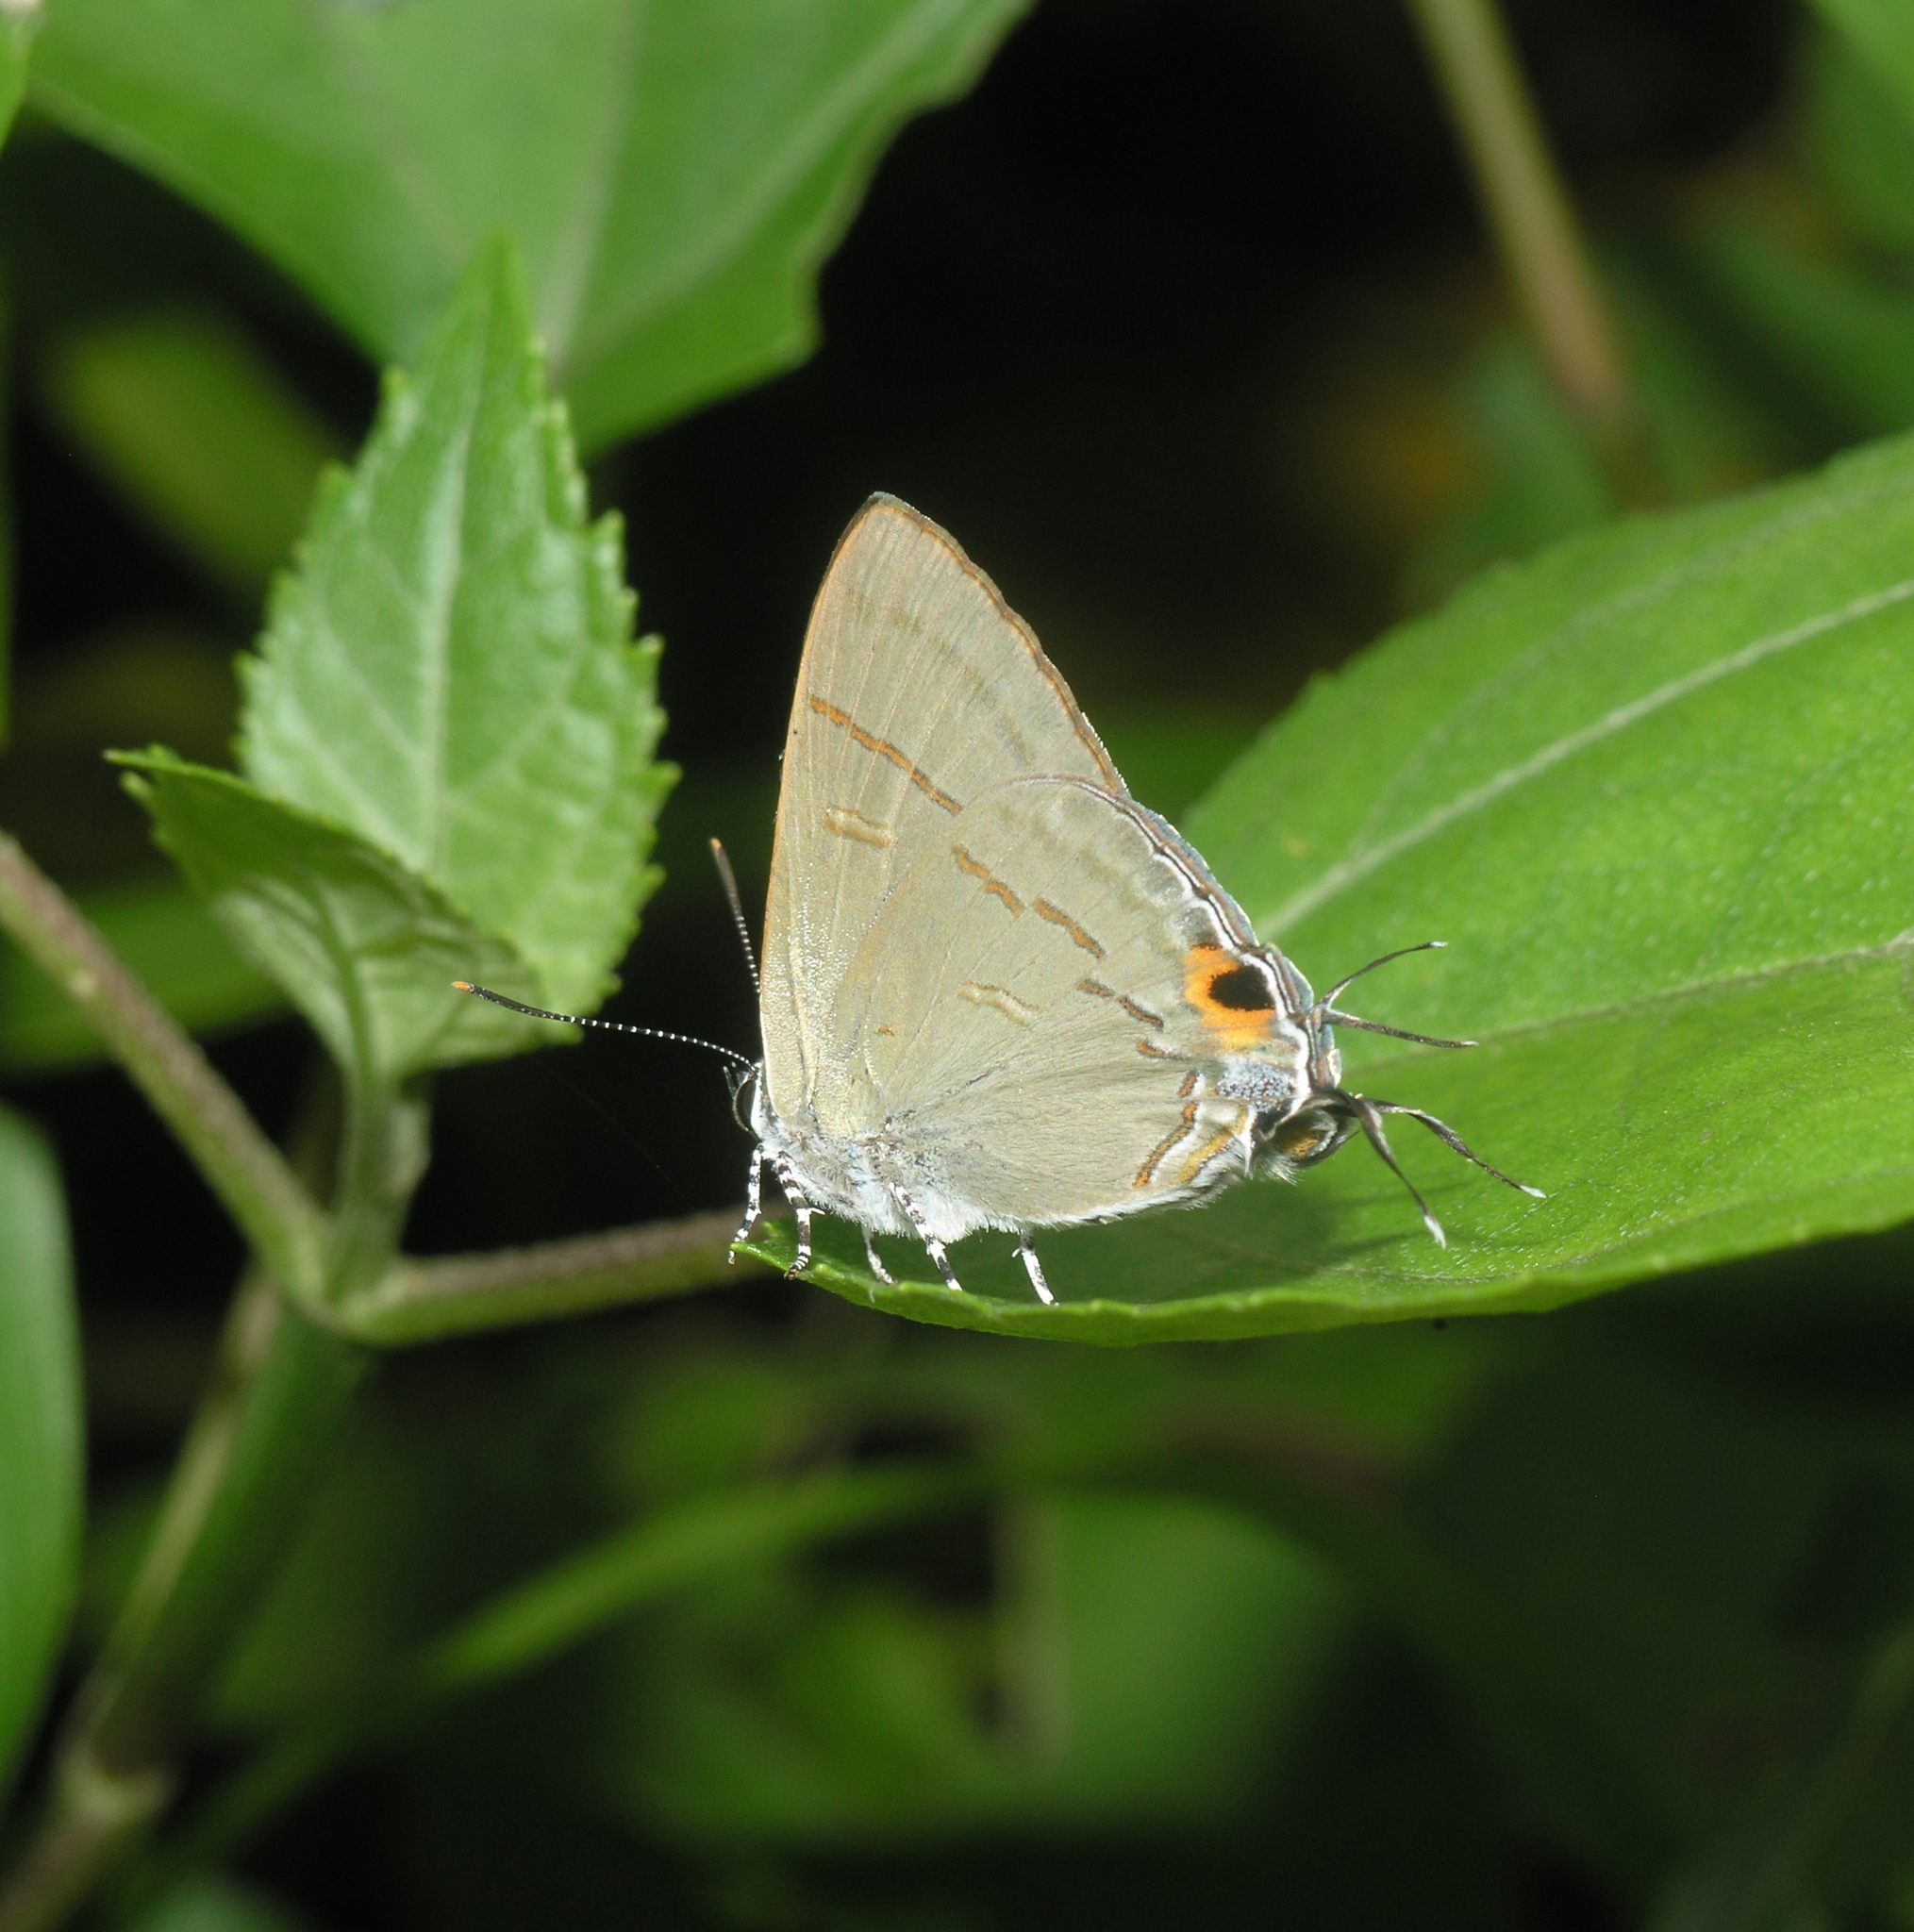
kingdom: Animalia
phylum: Arthropoda
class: Insecta
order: Lepidoptera
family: Lycaenidae
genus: Hypolycaena
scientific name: Hypolycaena erylus
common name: Common tit
